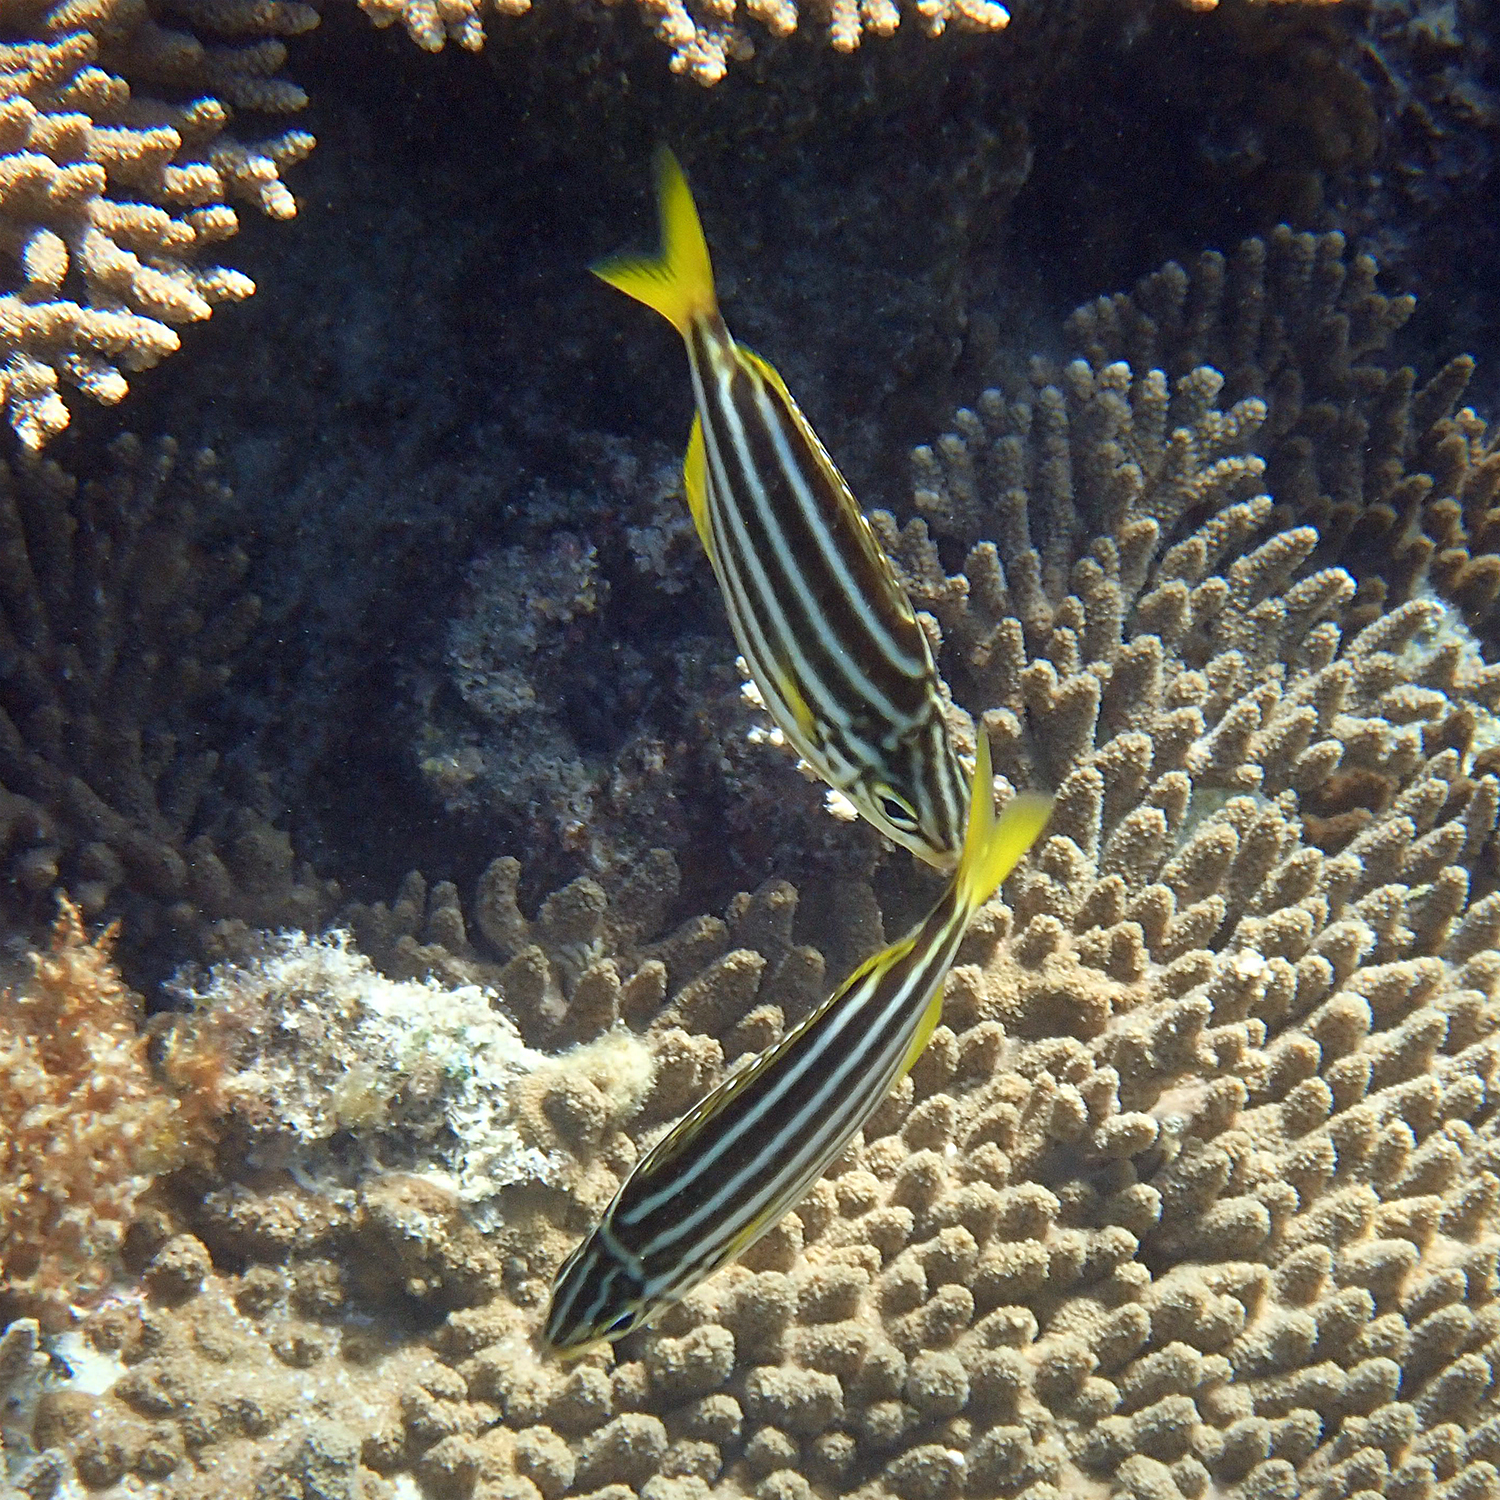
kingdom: Animalia
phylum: Chordata
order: Perciformes
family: Kyphosidae
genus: Atypichthys
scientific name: Atypichthys latus
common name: Mado
